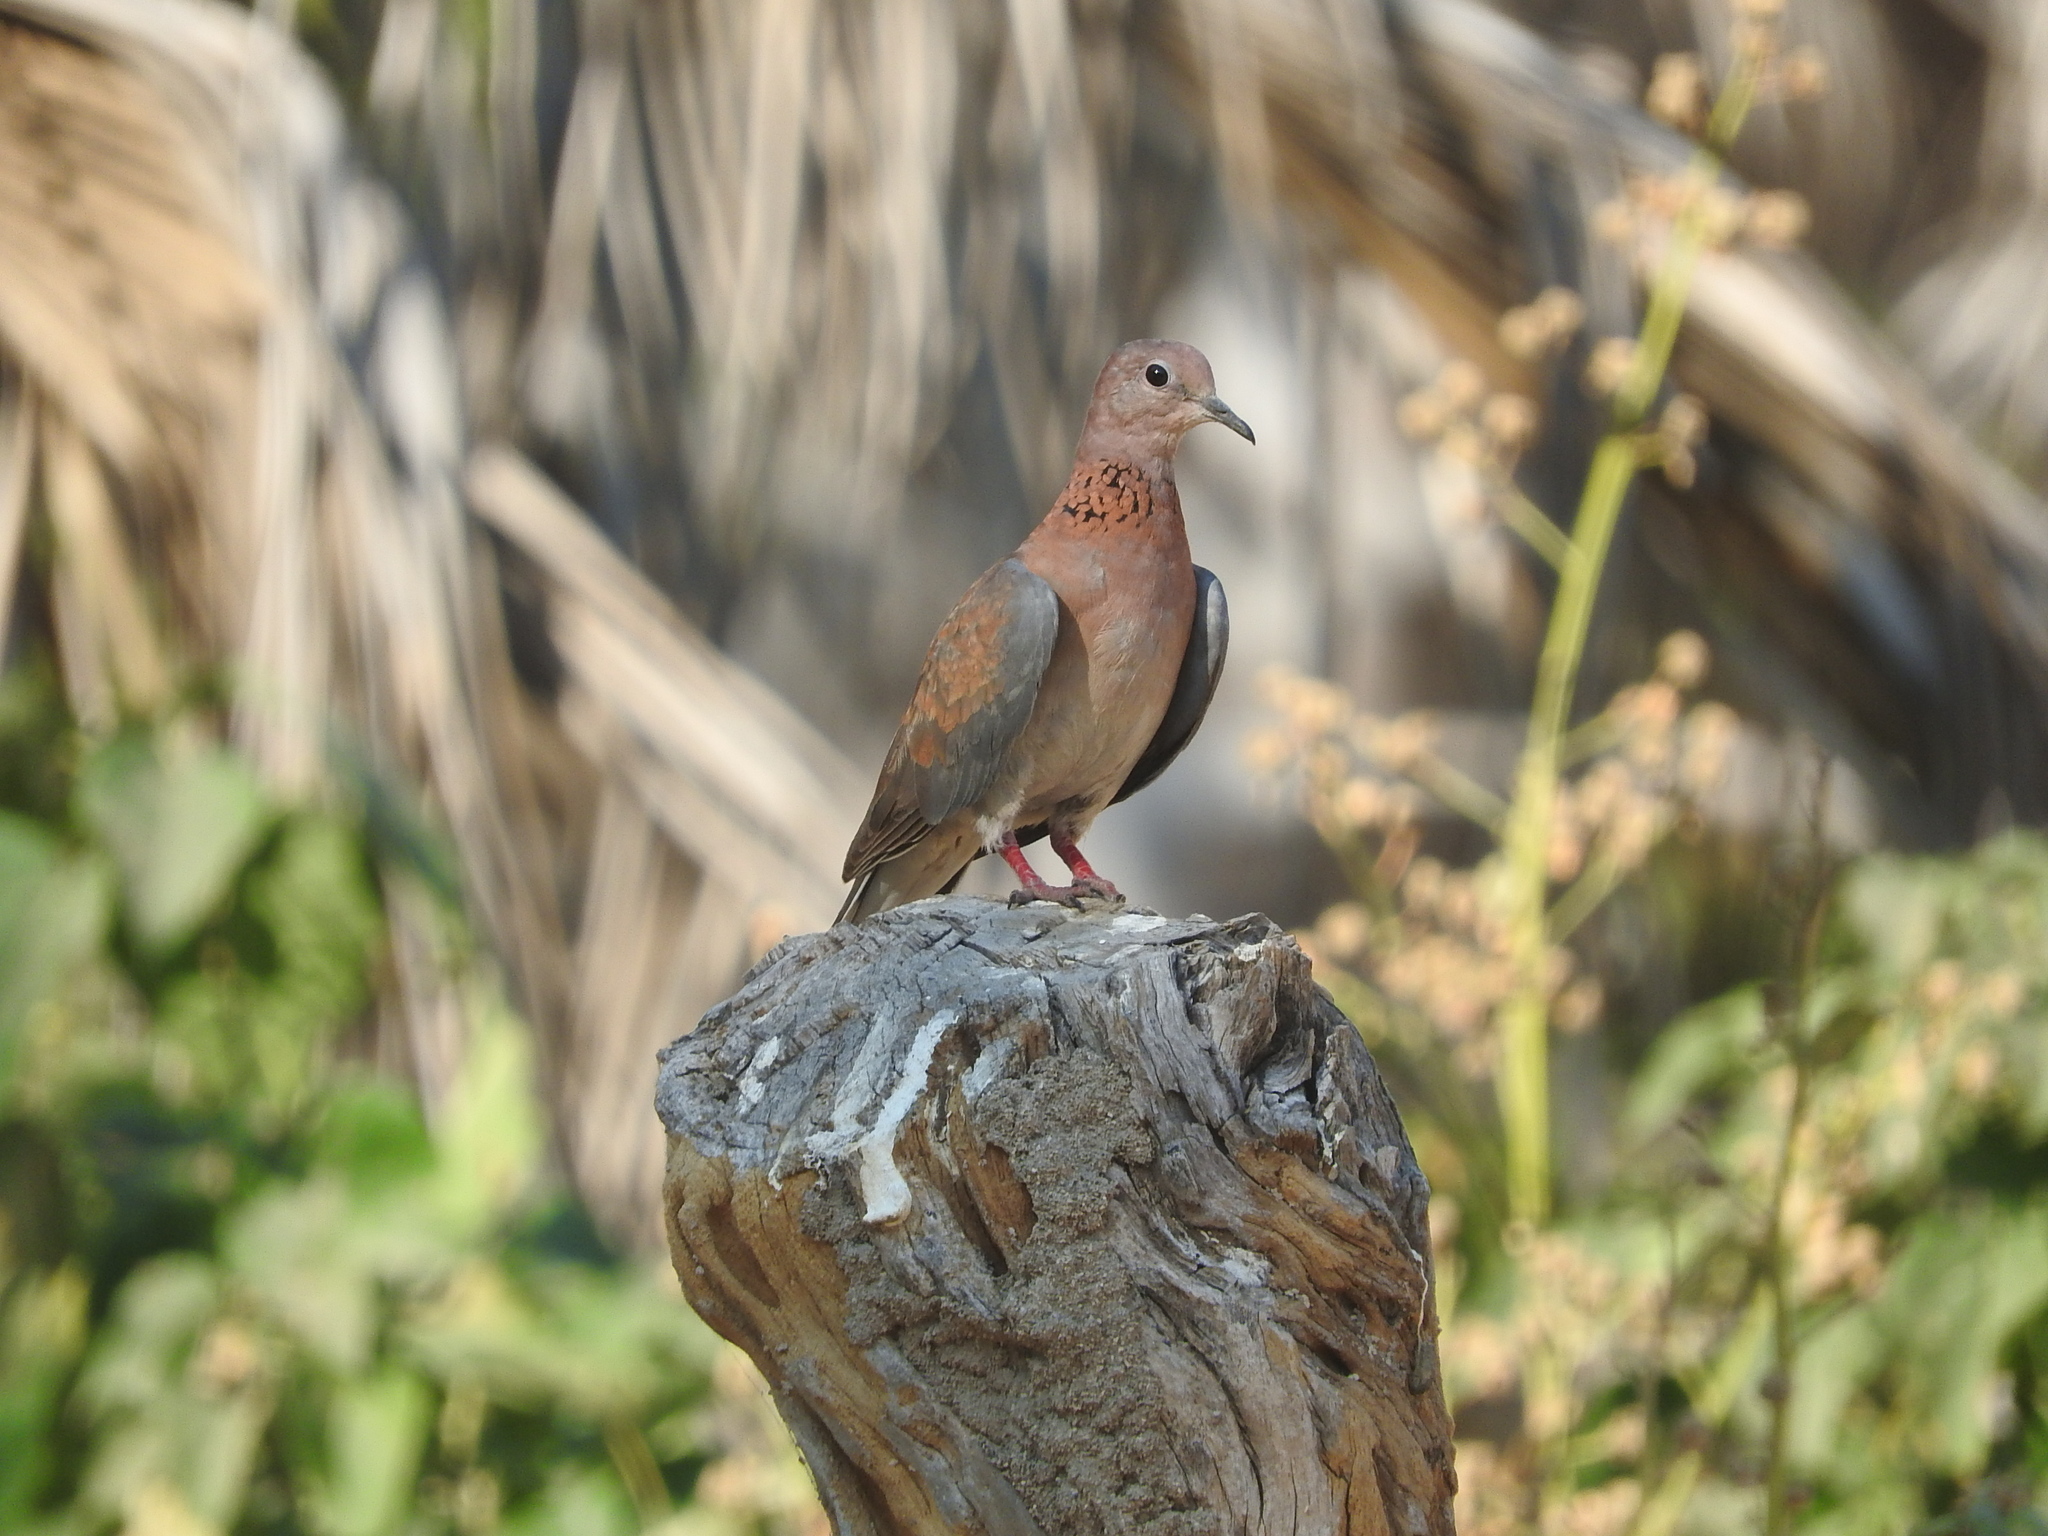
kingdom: Animalia
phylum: Chordata
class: Aves
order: Columbiformes
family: Columbidae
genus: Spilopelia
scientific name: Spilopelia senegalensis
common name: Laughing dove
